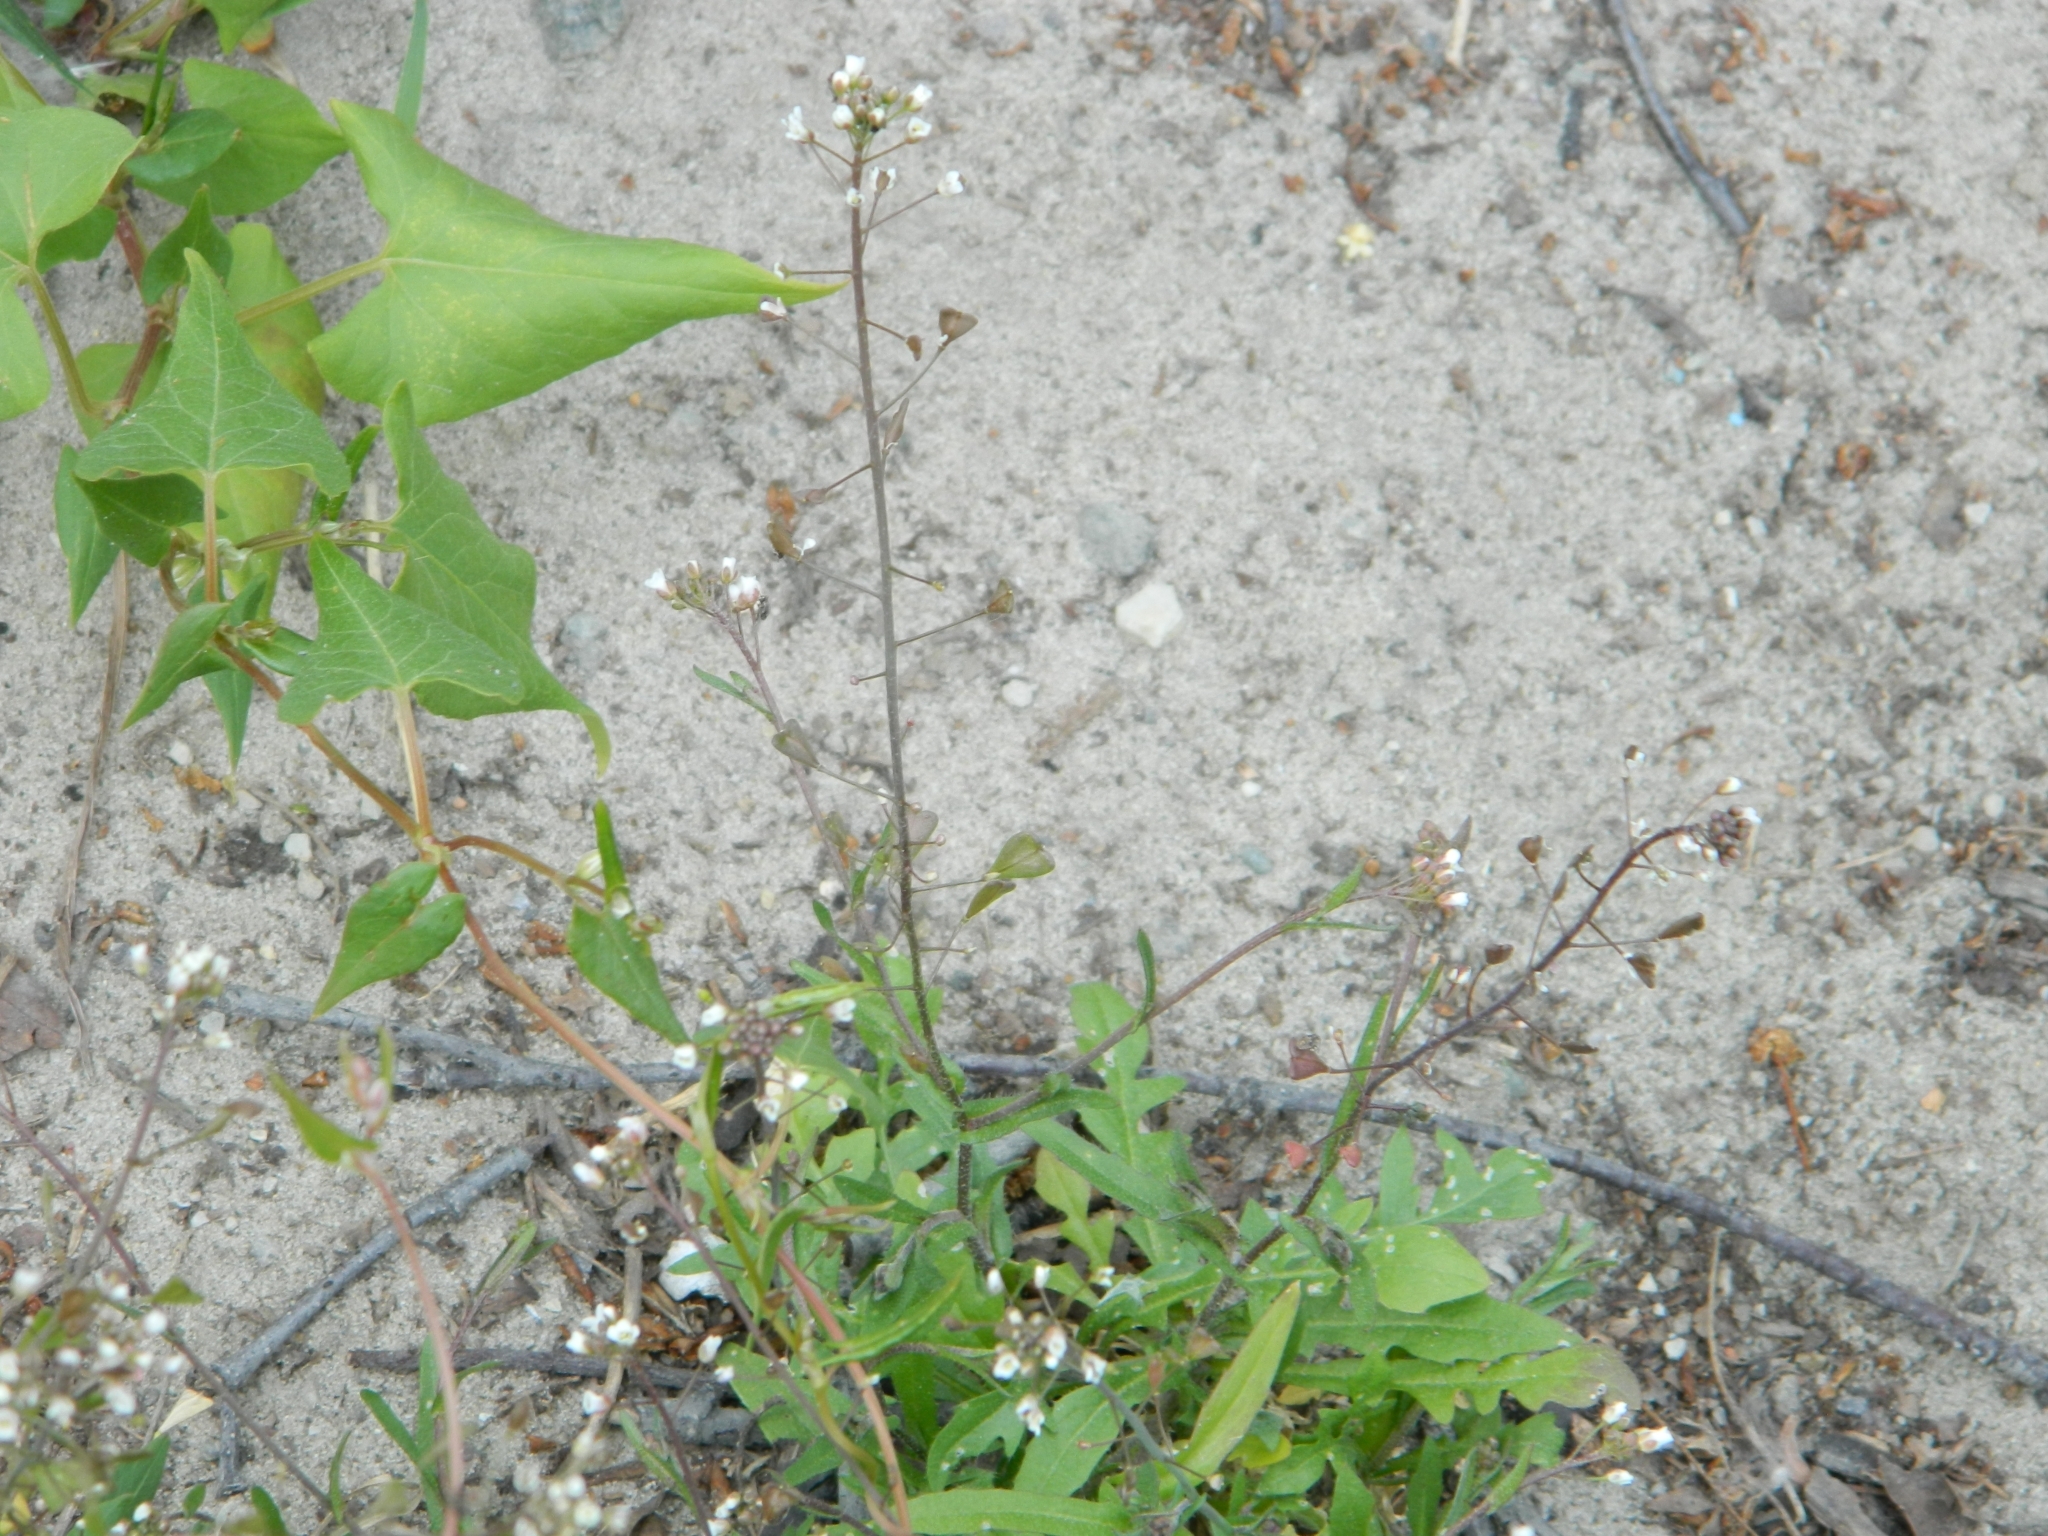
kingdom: Plantae
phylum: Tracheophyta
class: Magnoliopsida
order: Brassicales
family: Brassicaceae
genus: Capsella
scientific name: Capsella bursa-pastoris
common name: Shepherd's purse
